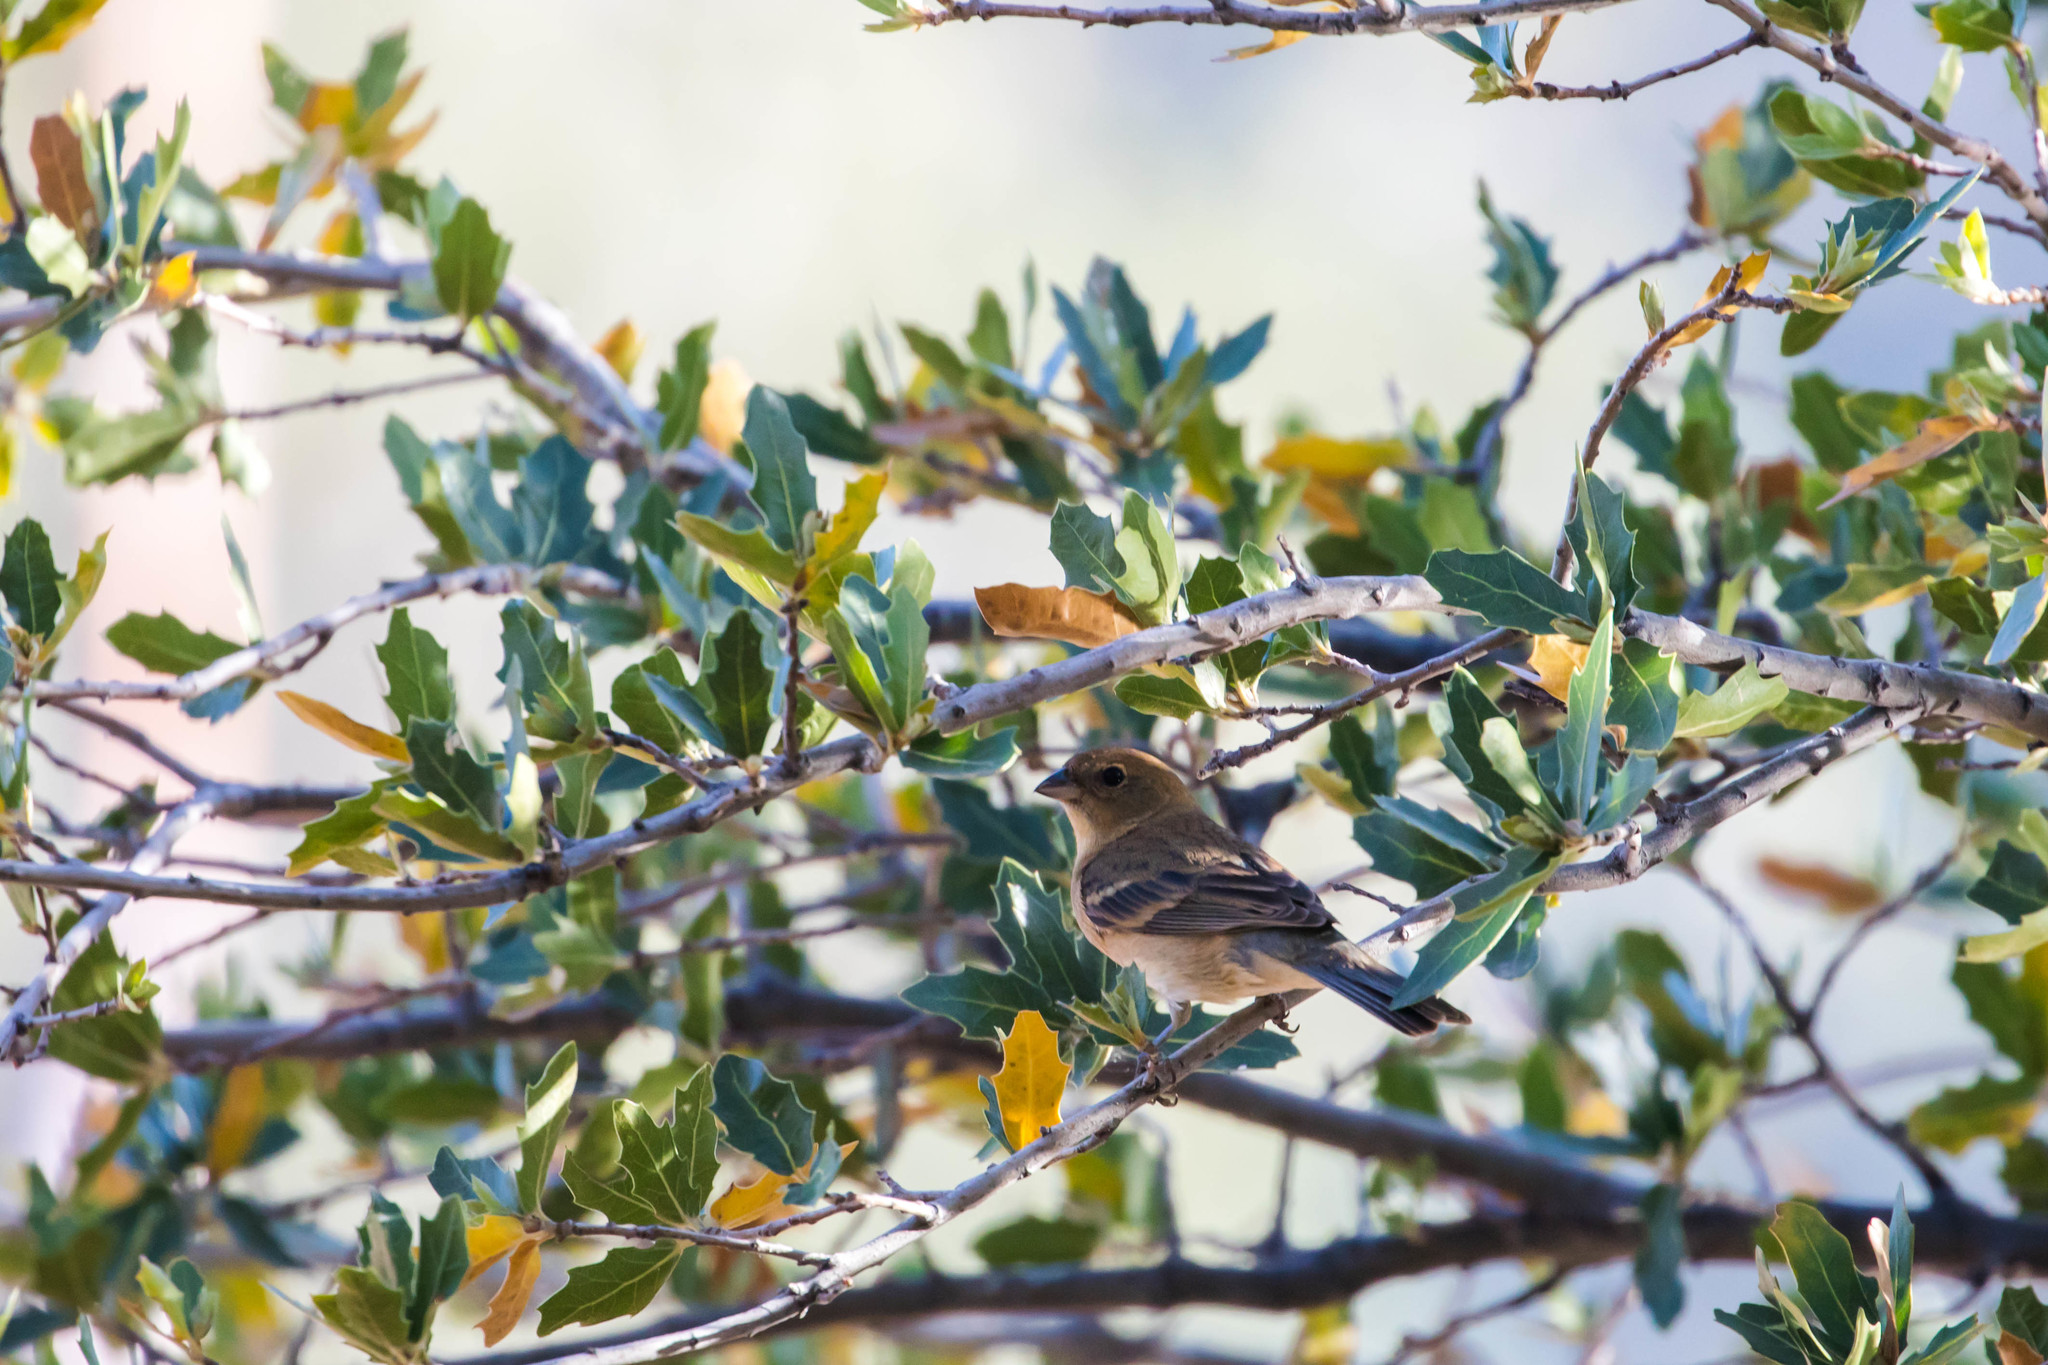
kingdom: Animalia
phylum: Chordata
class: Aves
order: Passeriformes
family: Cardinalidae
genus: Passerina
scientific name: Passerina amoena
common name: Lazuli bunting
